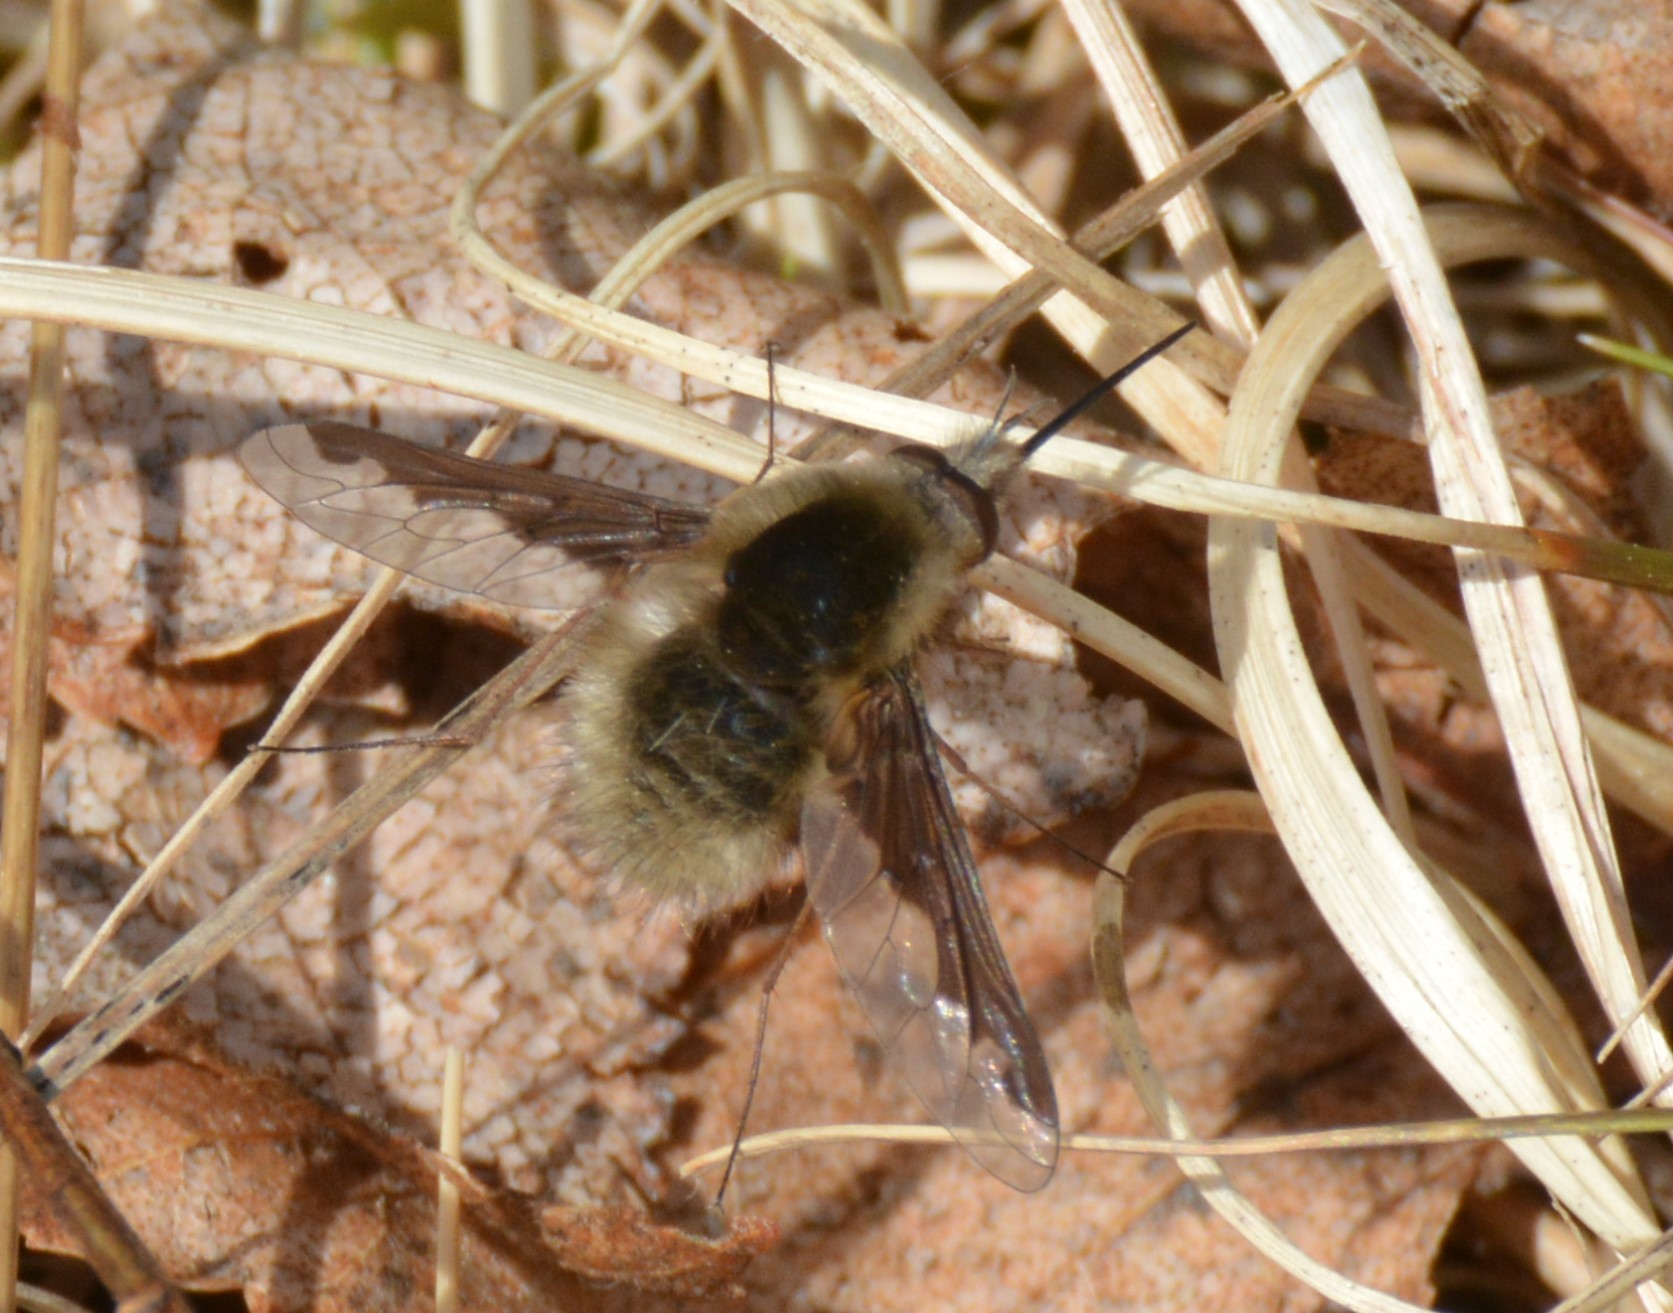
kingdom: Animalia
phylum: Arthropoda
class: Insecta
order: Diptera
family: Bombyliidae
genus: Bombylius
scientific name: Bombylius major
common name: Bee fly
